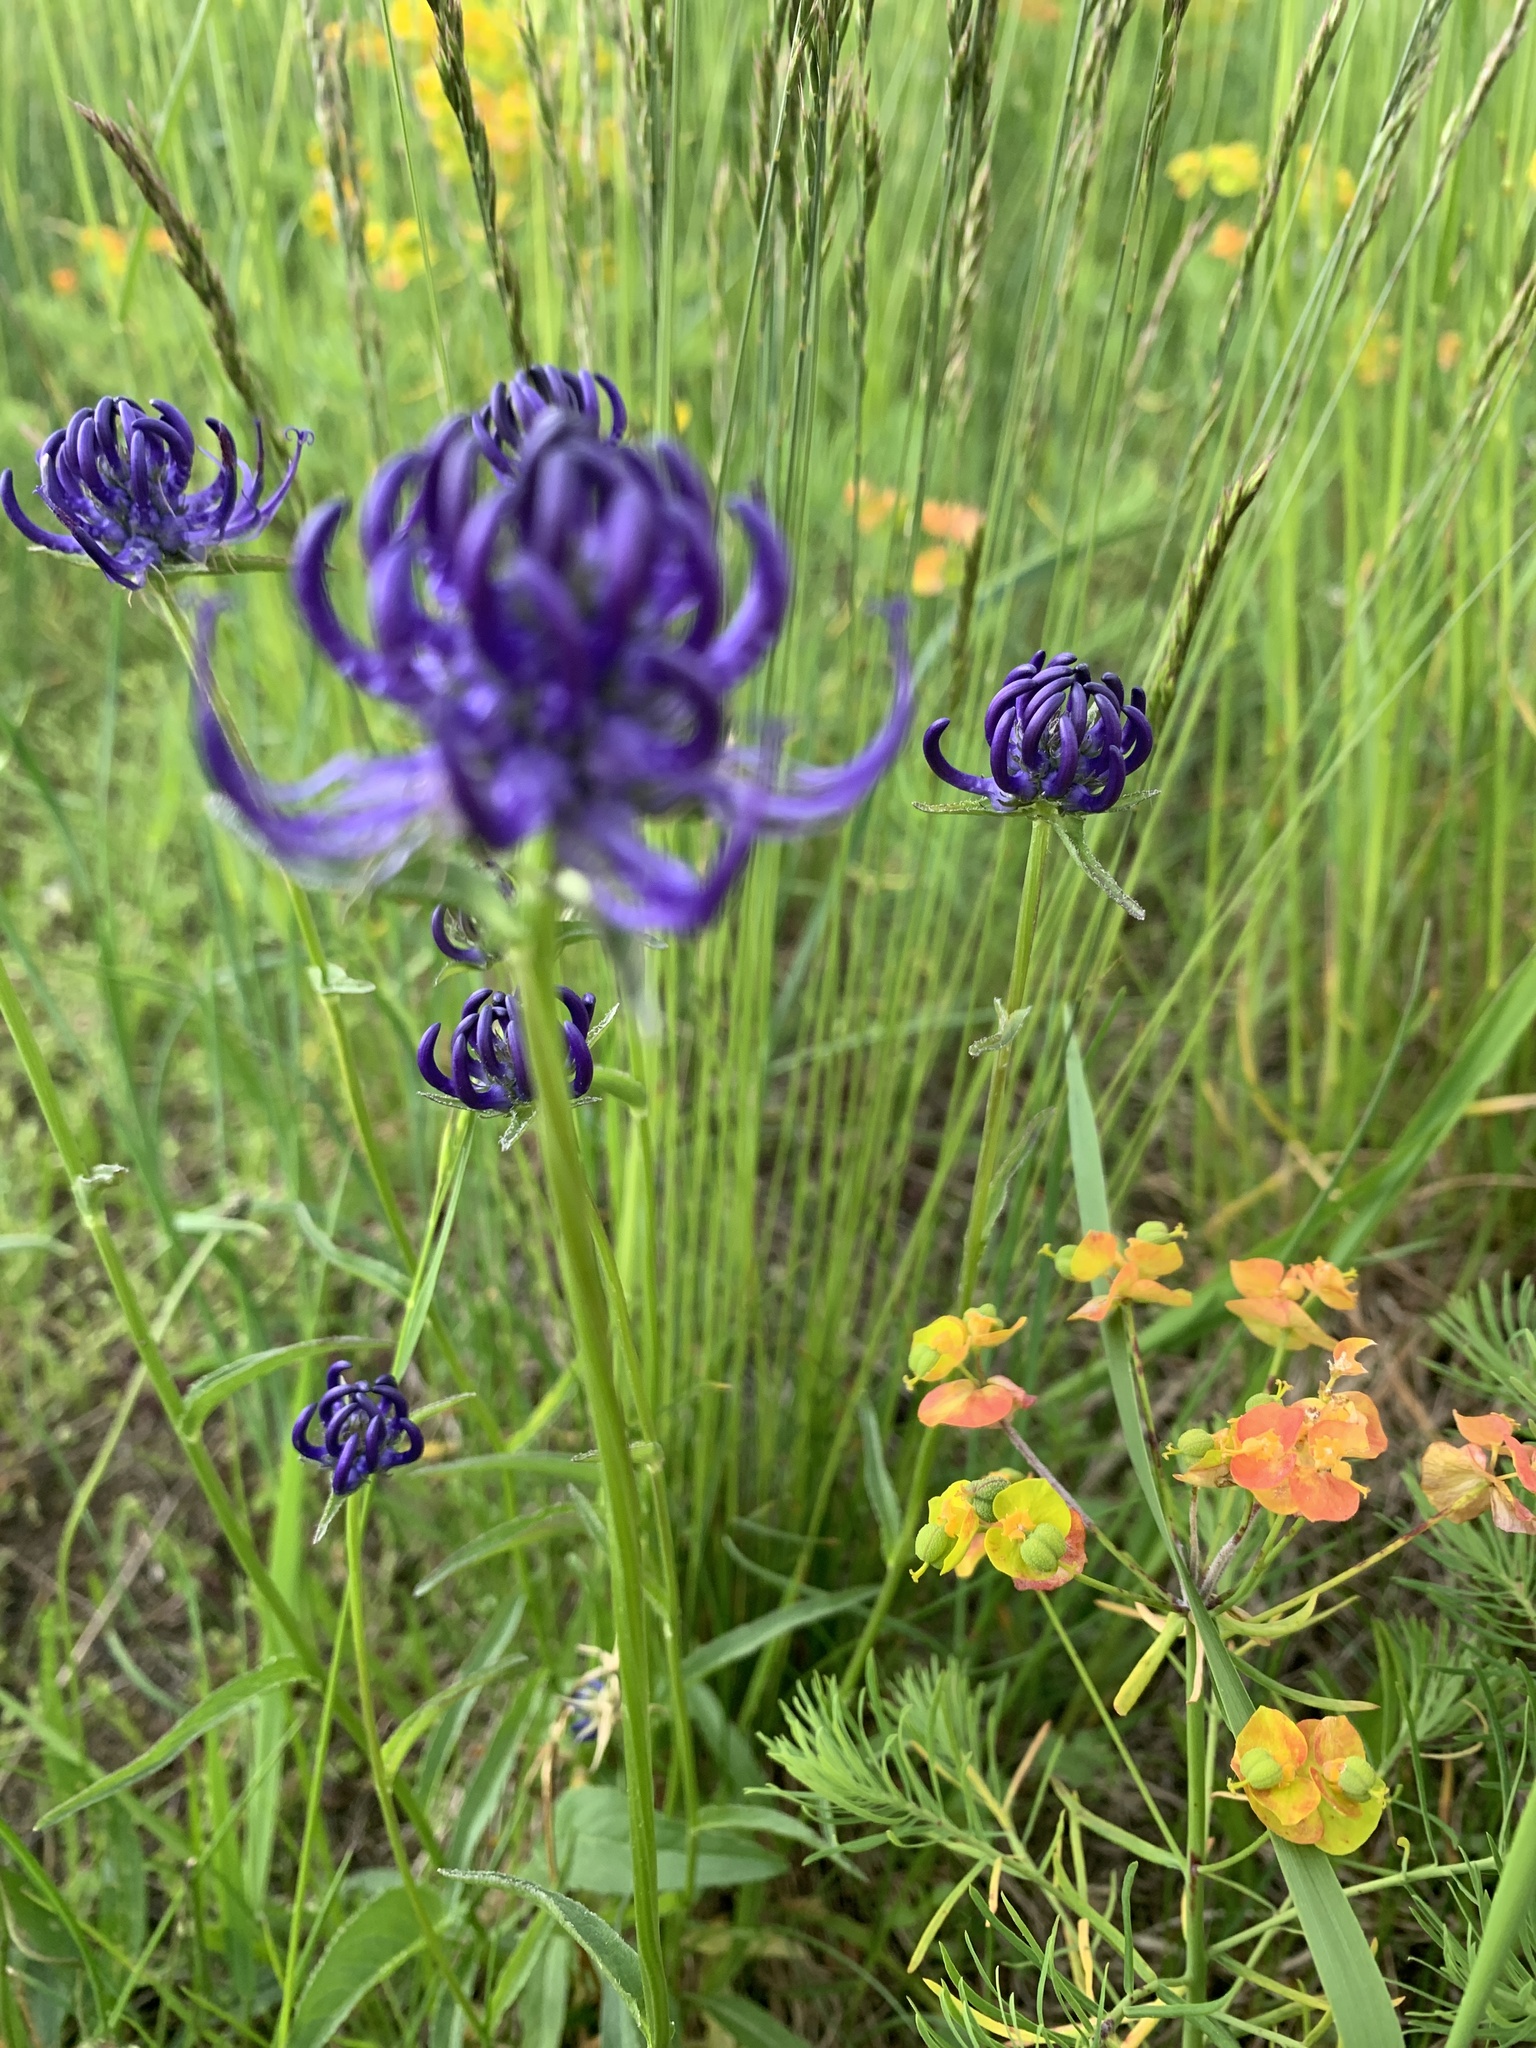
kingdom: Plantae
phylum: Tracheophyta
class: Magnoliopsida
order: Asterales
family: Campanulaceae
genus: Phyteuma
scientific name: Phyteuma orbiculare
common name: Round-headed rampion
